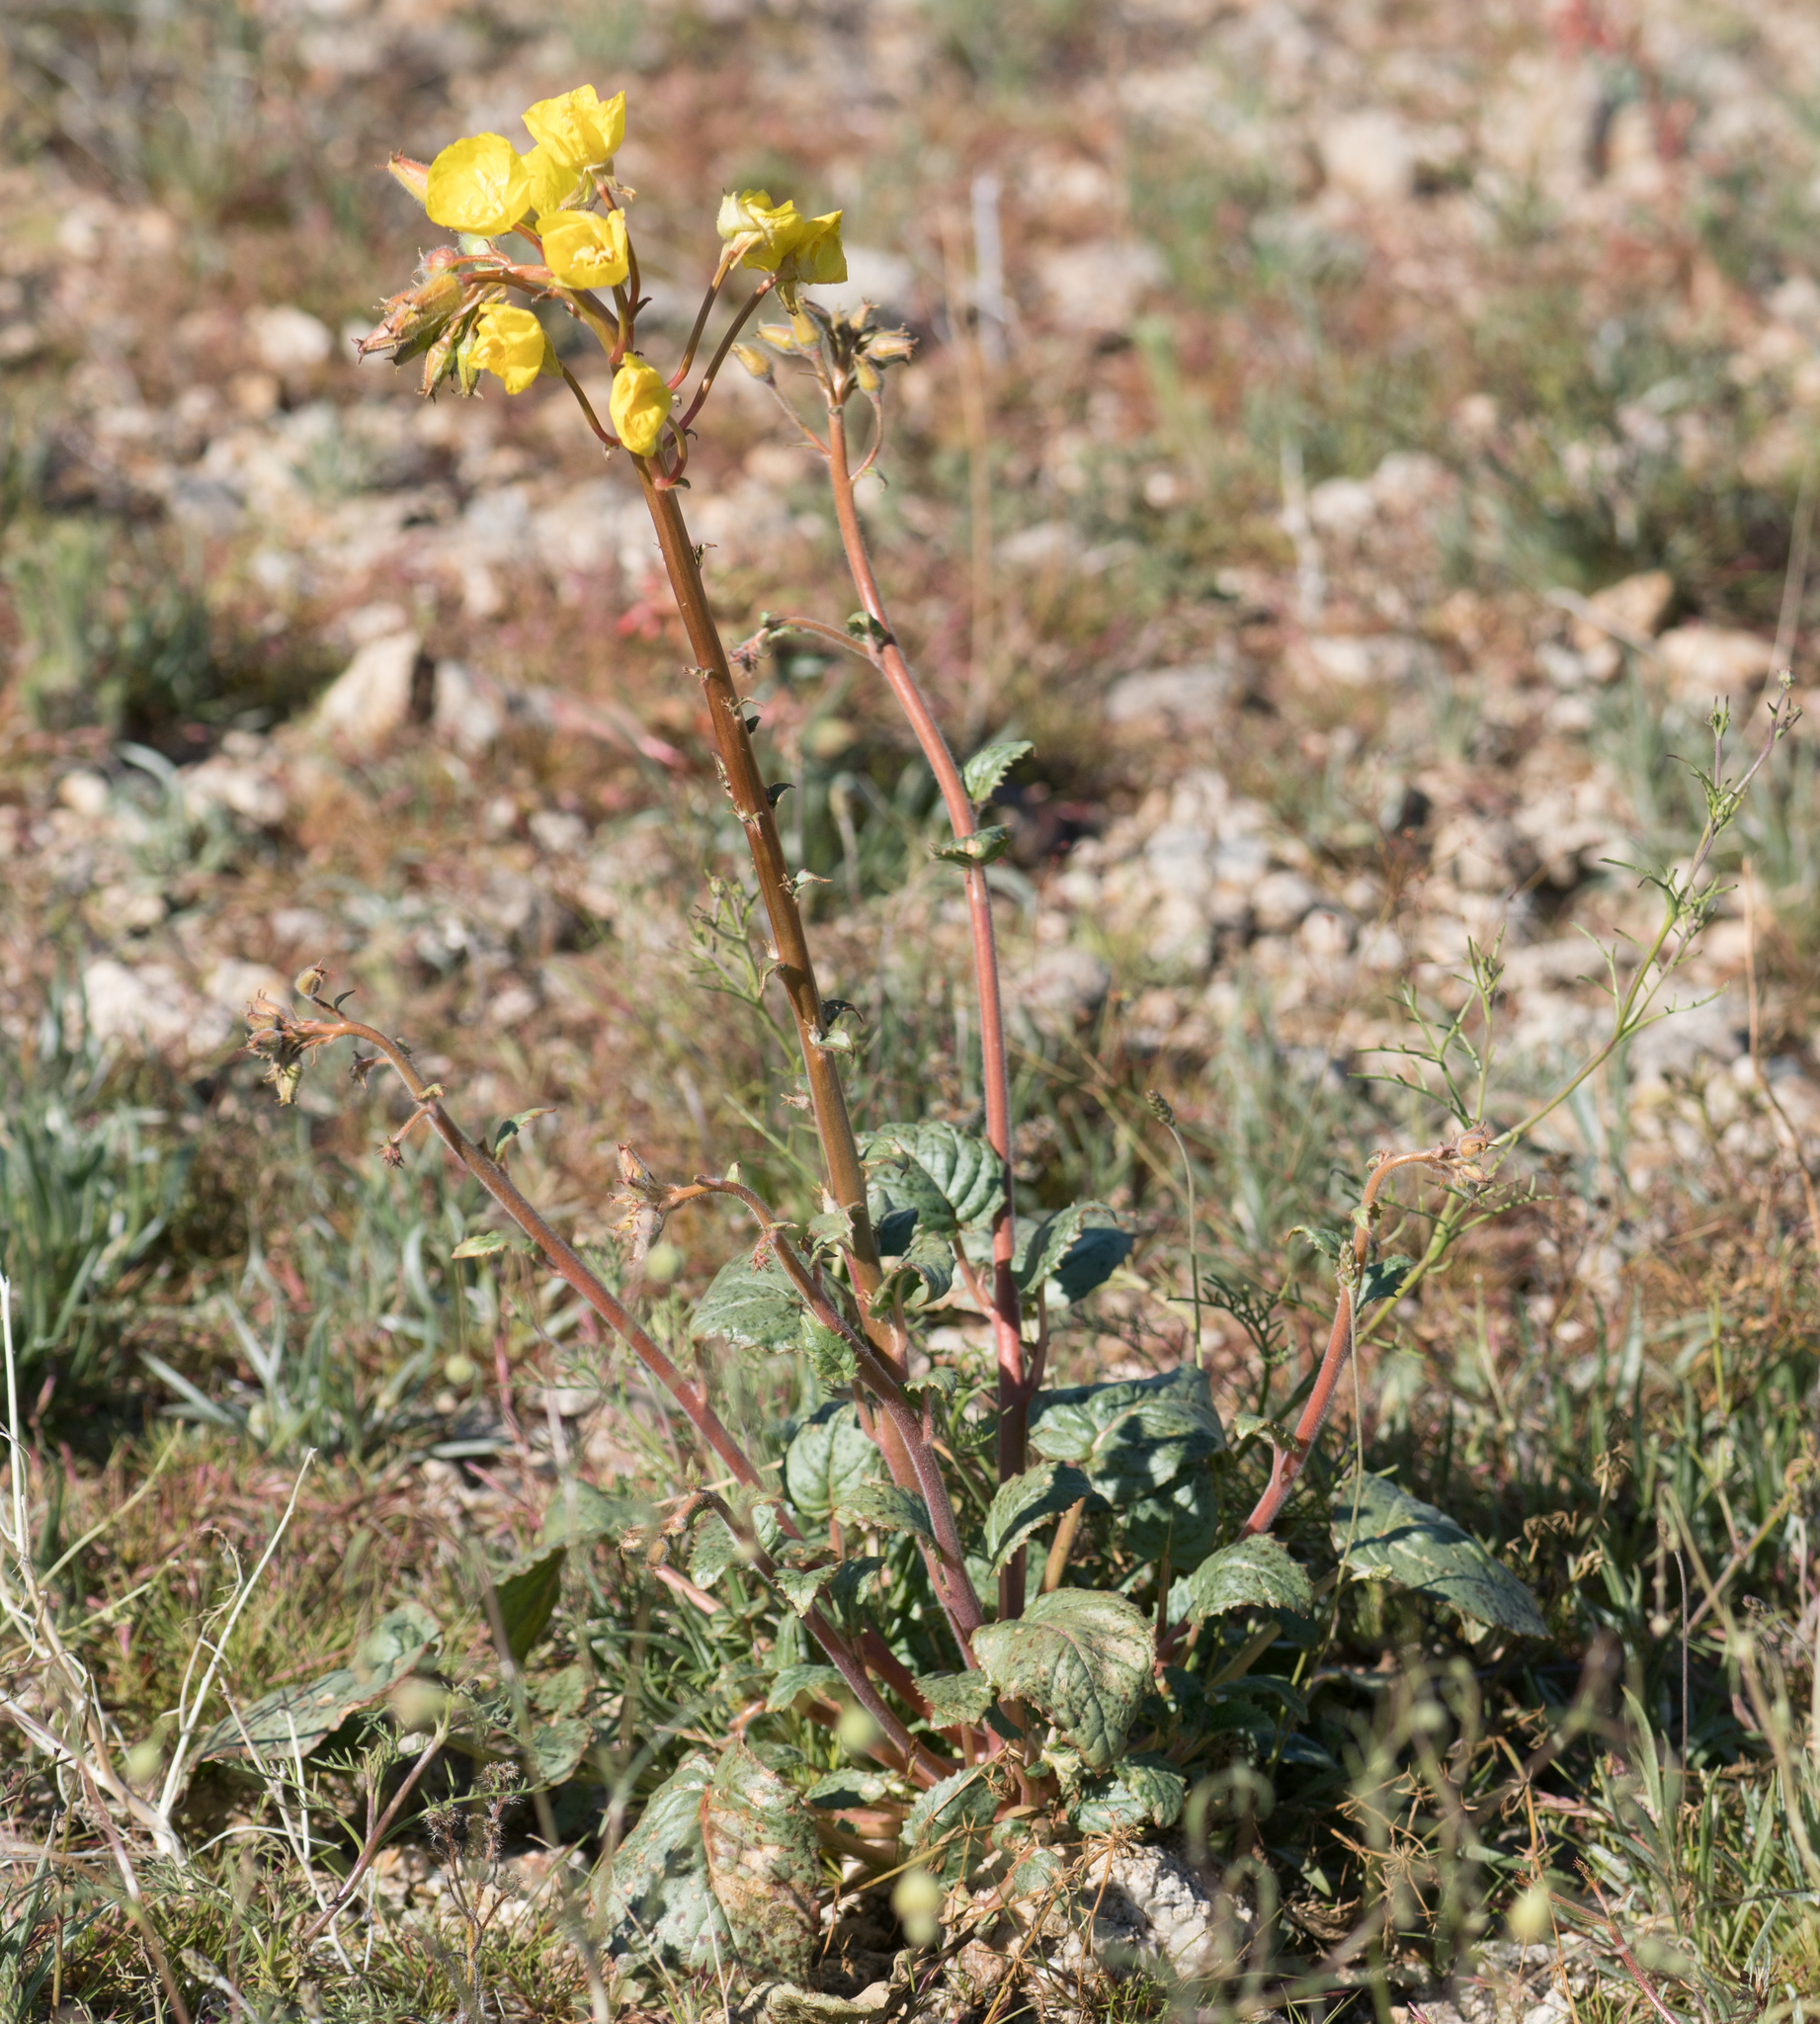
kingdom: Plantae
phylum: Tracheophyta
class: Magnoliopsida
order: Myrtales
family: Onagraceae
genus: Chylismia
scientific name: Chylismia brevipes
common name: Yellow cups
